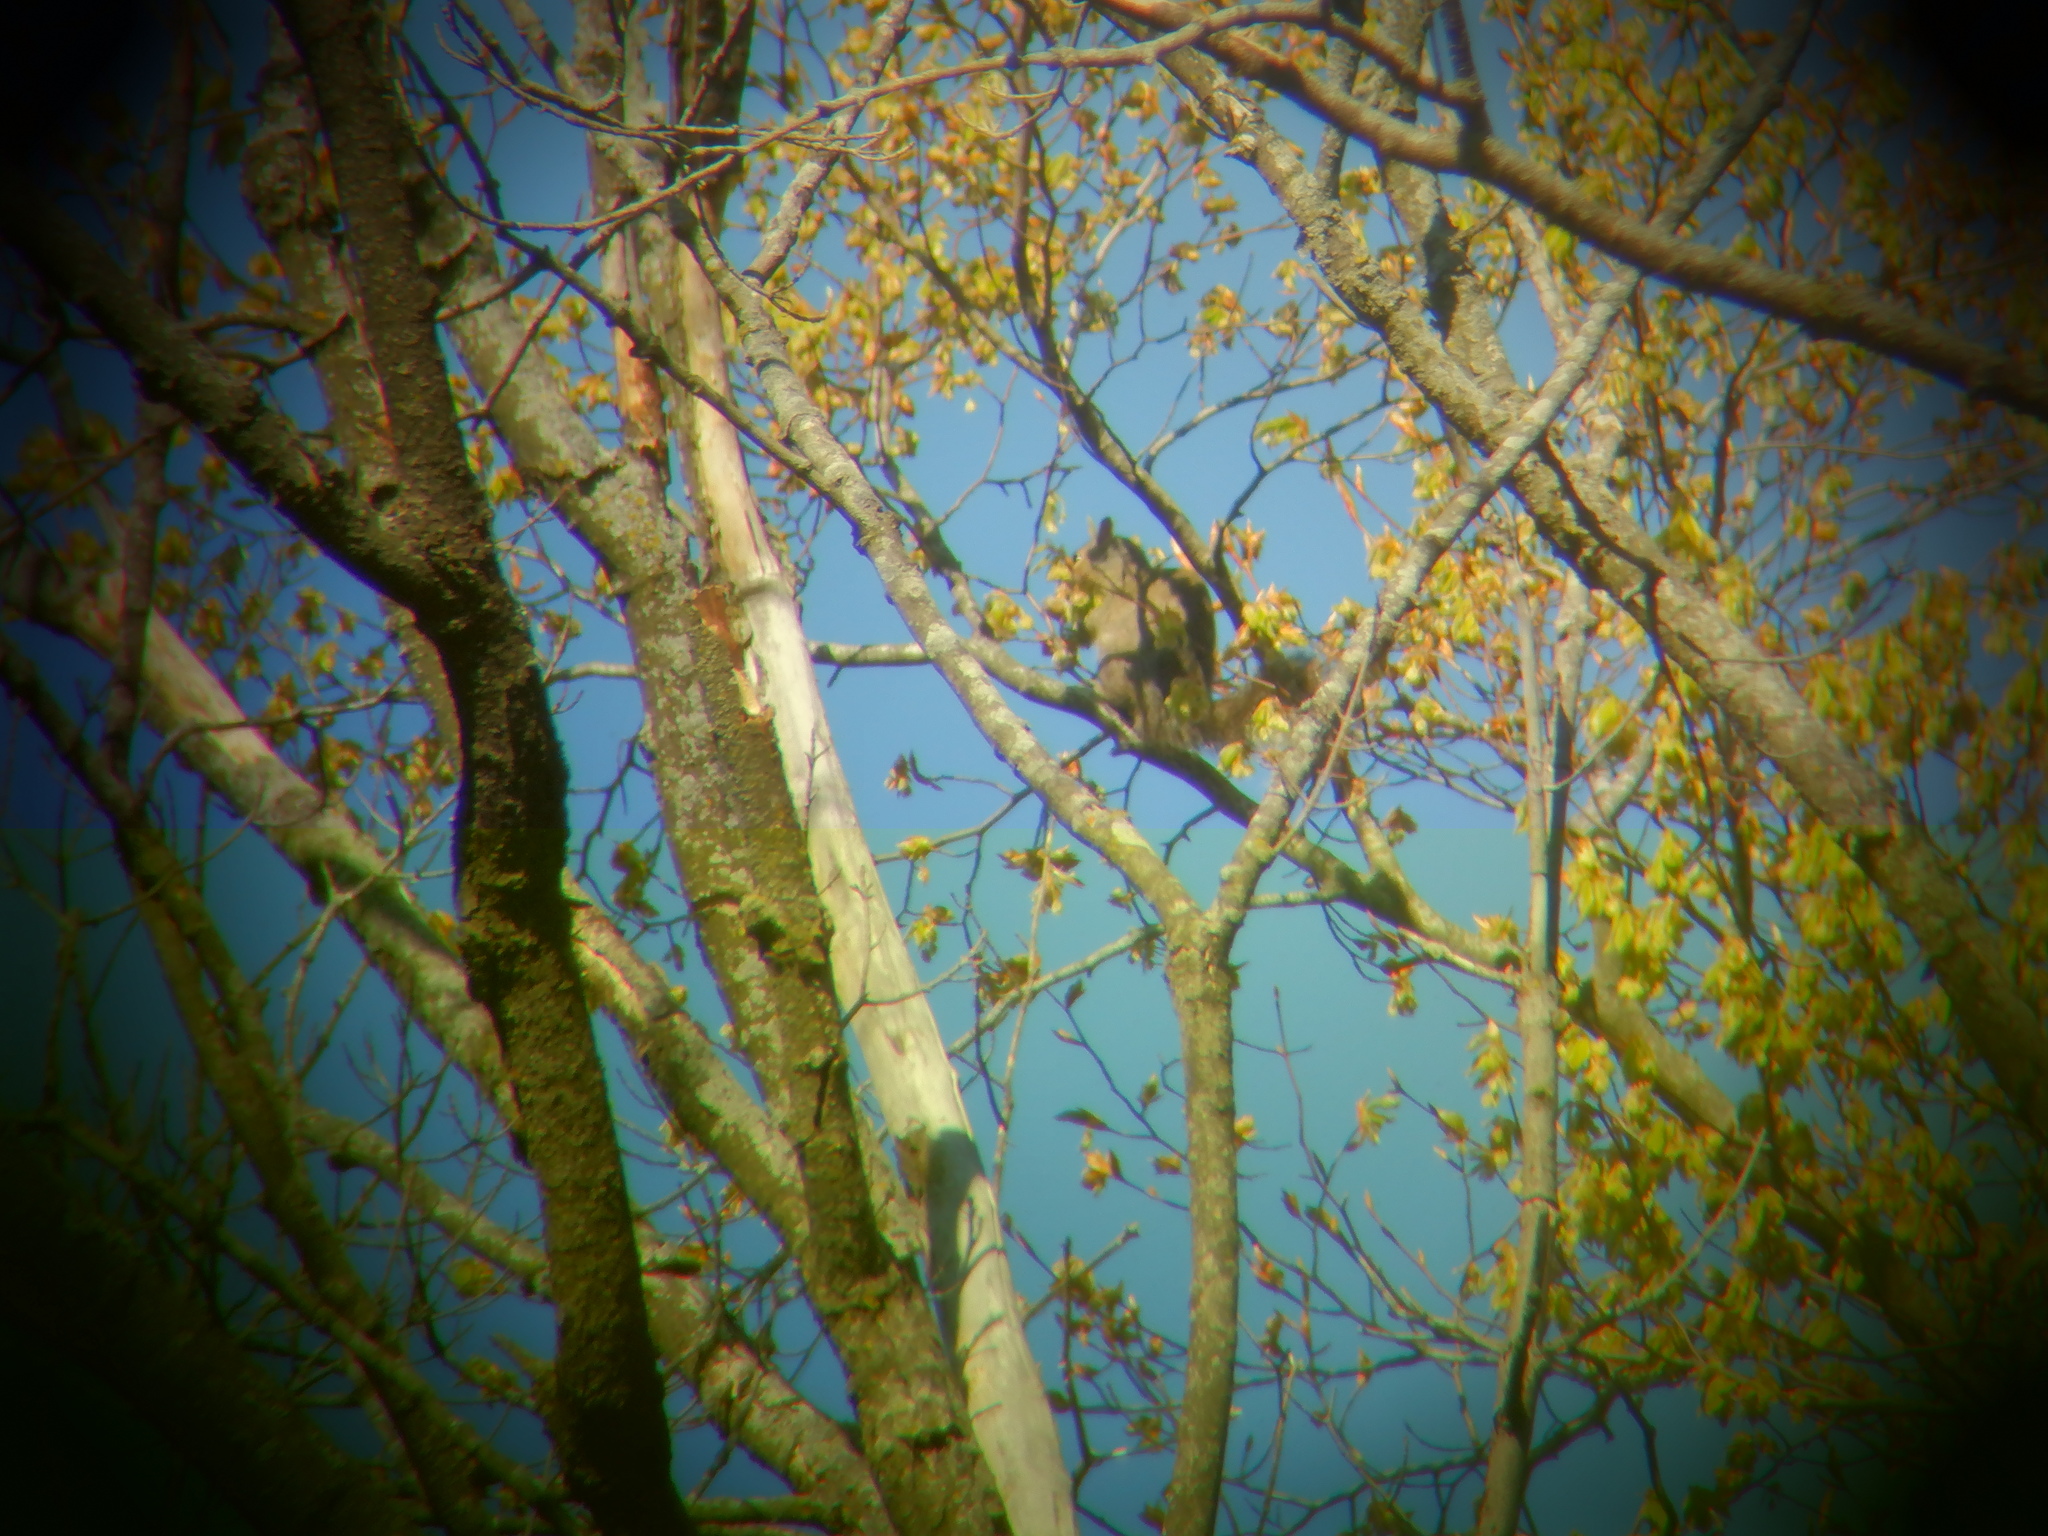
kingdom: Animalia
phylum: Chordata
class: Mammalia
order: Rodentia
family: Sciuridae
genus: Sciurus
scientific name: Sciurus carolinensis
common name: Eastern gray squirrel
